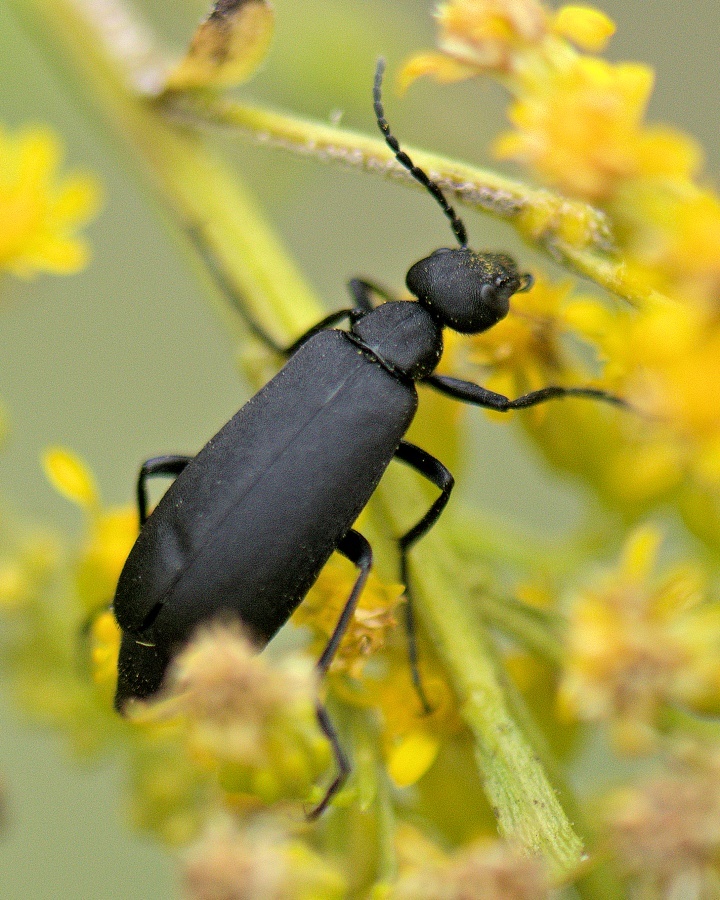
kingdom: Animalia
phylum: Arthropoda
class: Insecta
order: Coleoptera
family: Meloidae
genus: Epicauta
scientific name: Epicauta pensylvanica
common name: Black blister beetle
